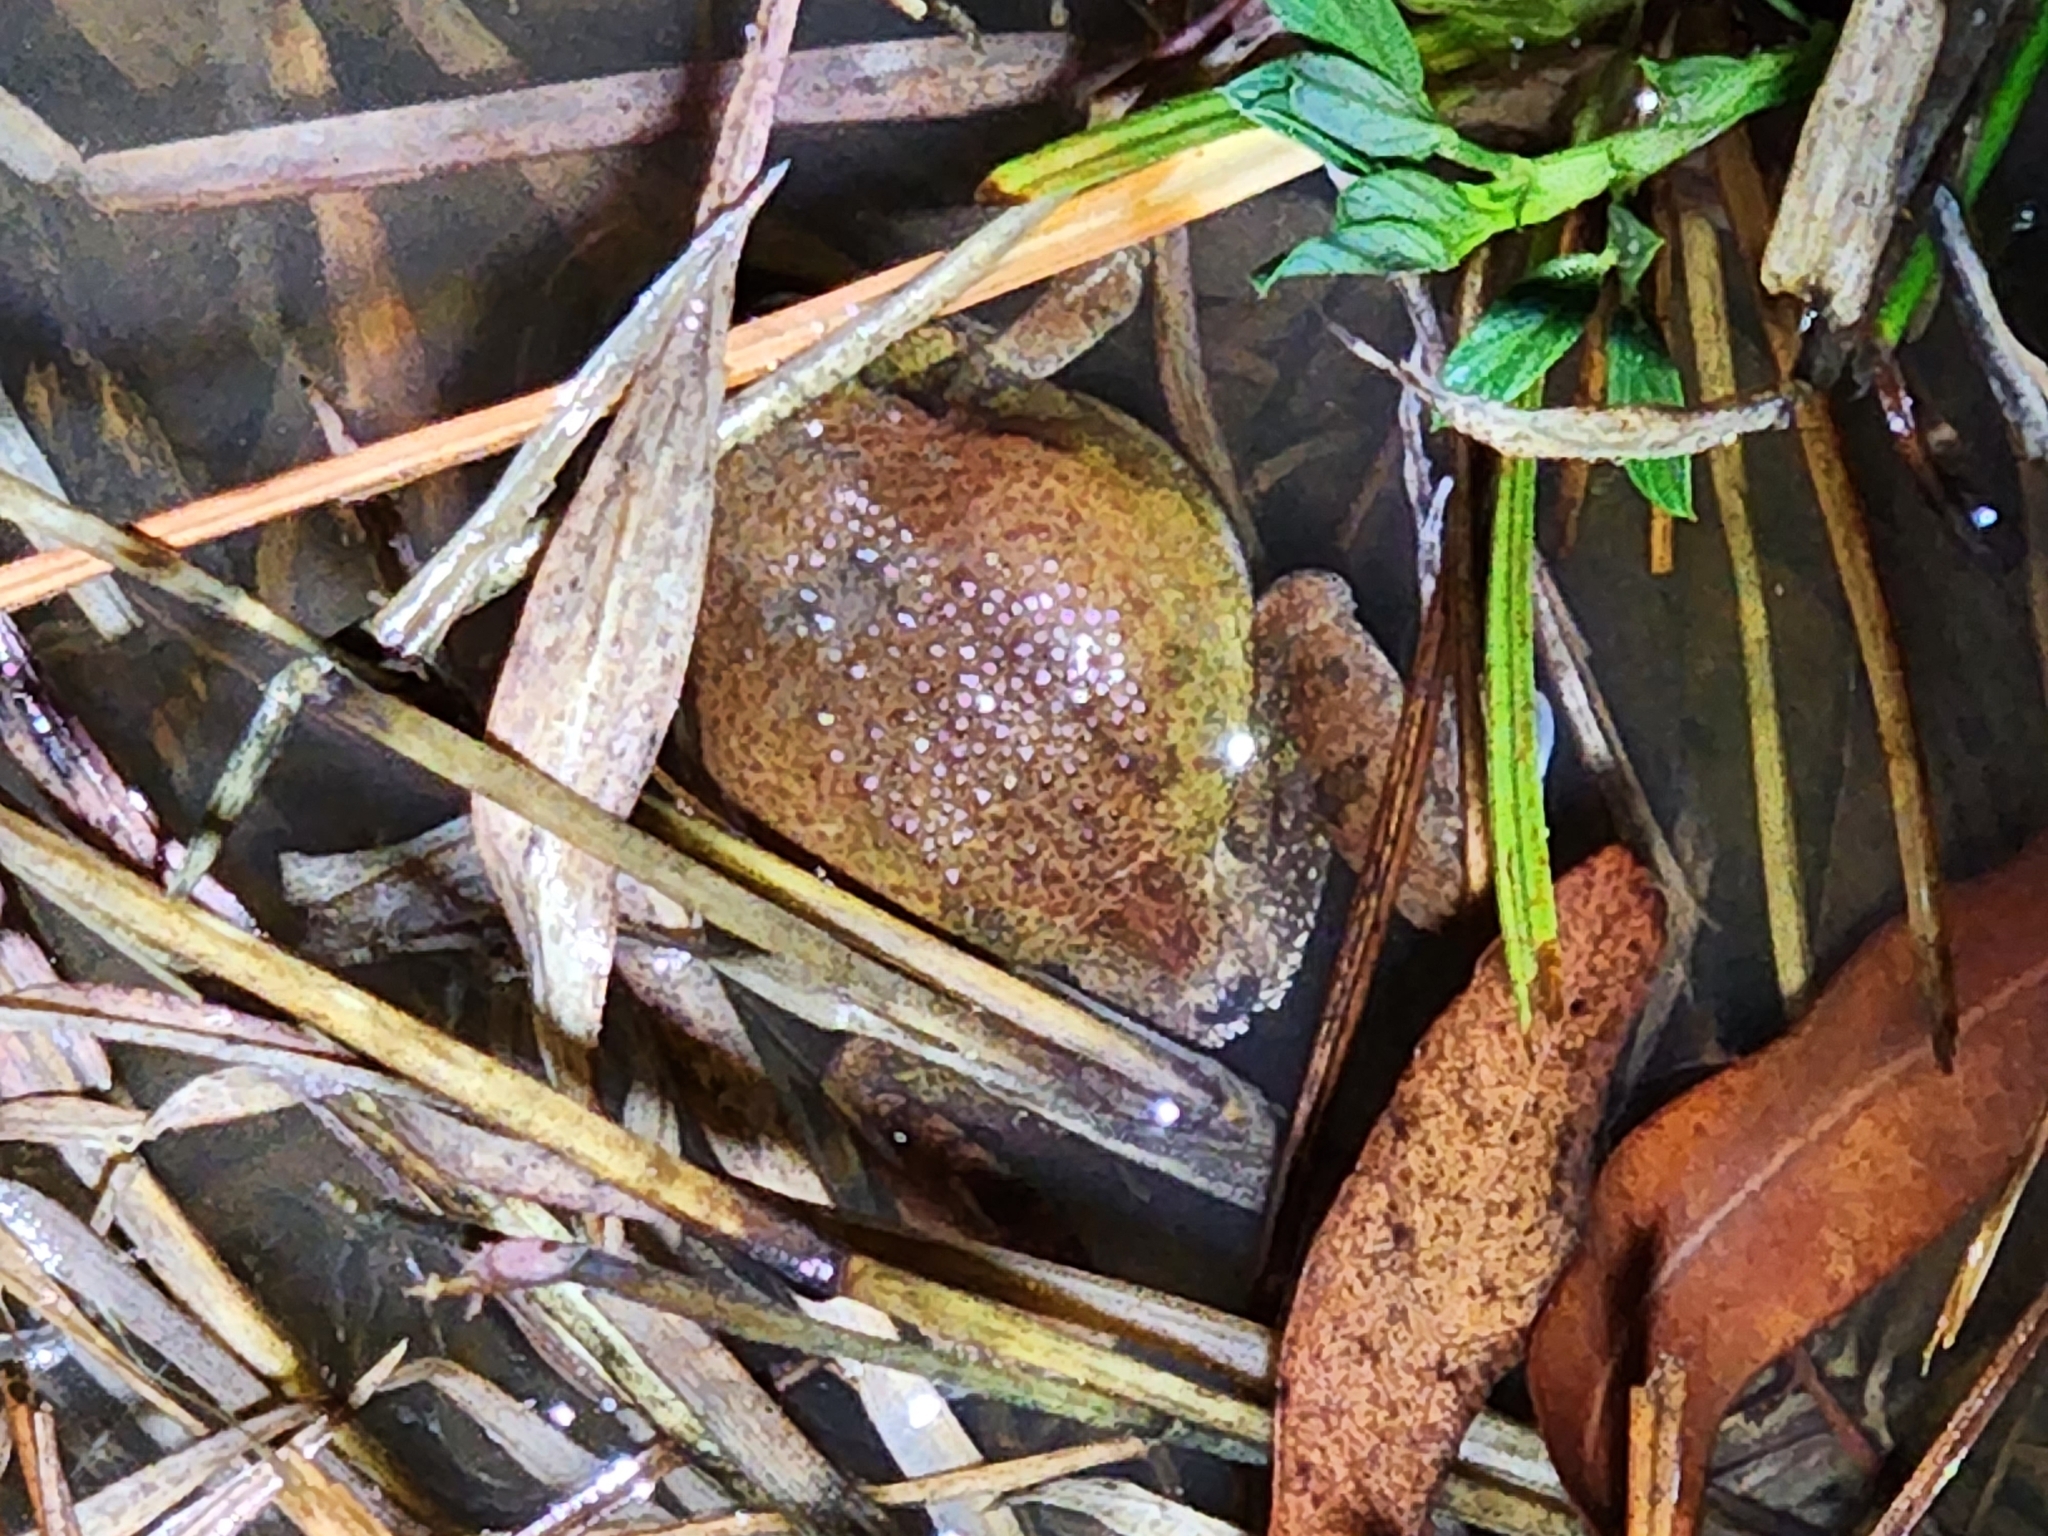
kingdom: Animalia
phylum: Chordata
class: Amphibia
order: Anura
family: Limnodynastidae
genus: Platyplectrum
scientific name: Platyplectrum ornatum
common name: Ornate burrowing frog
